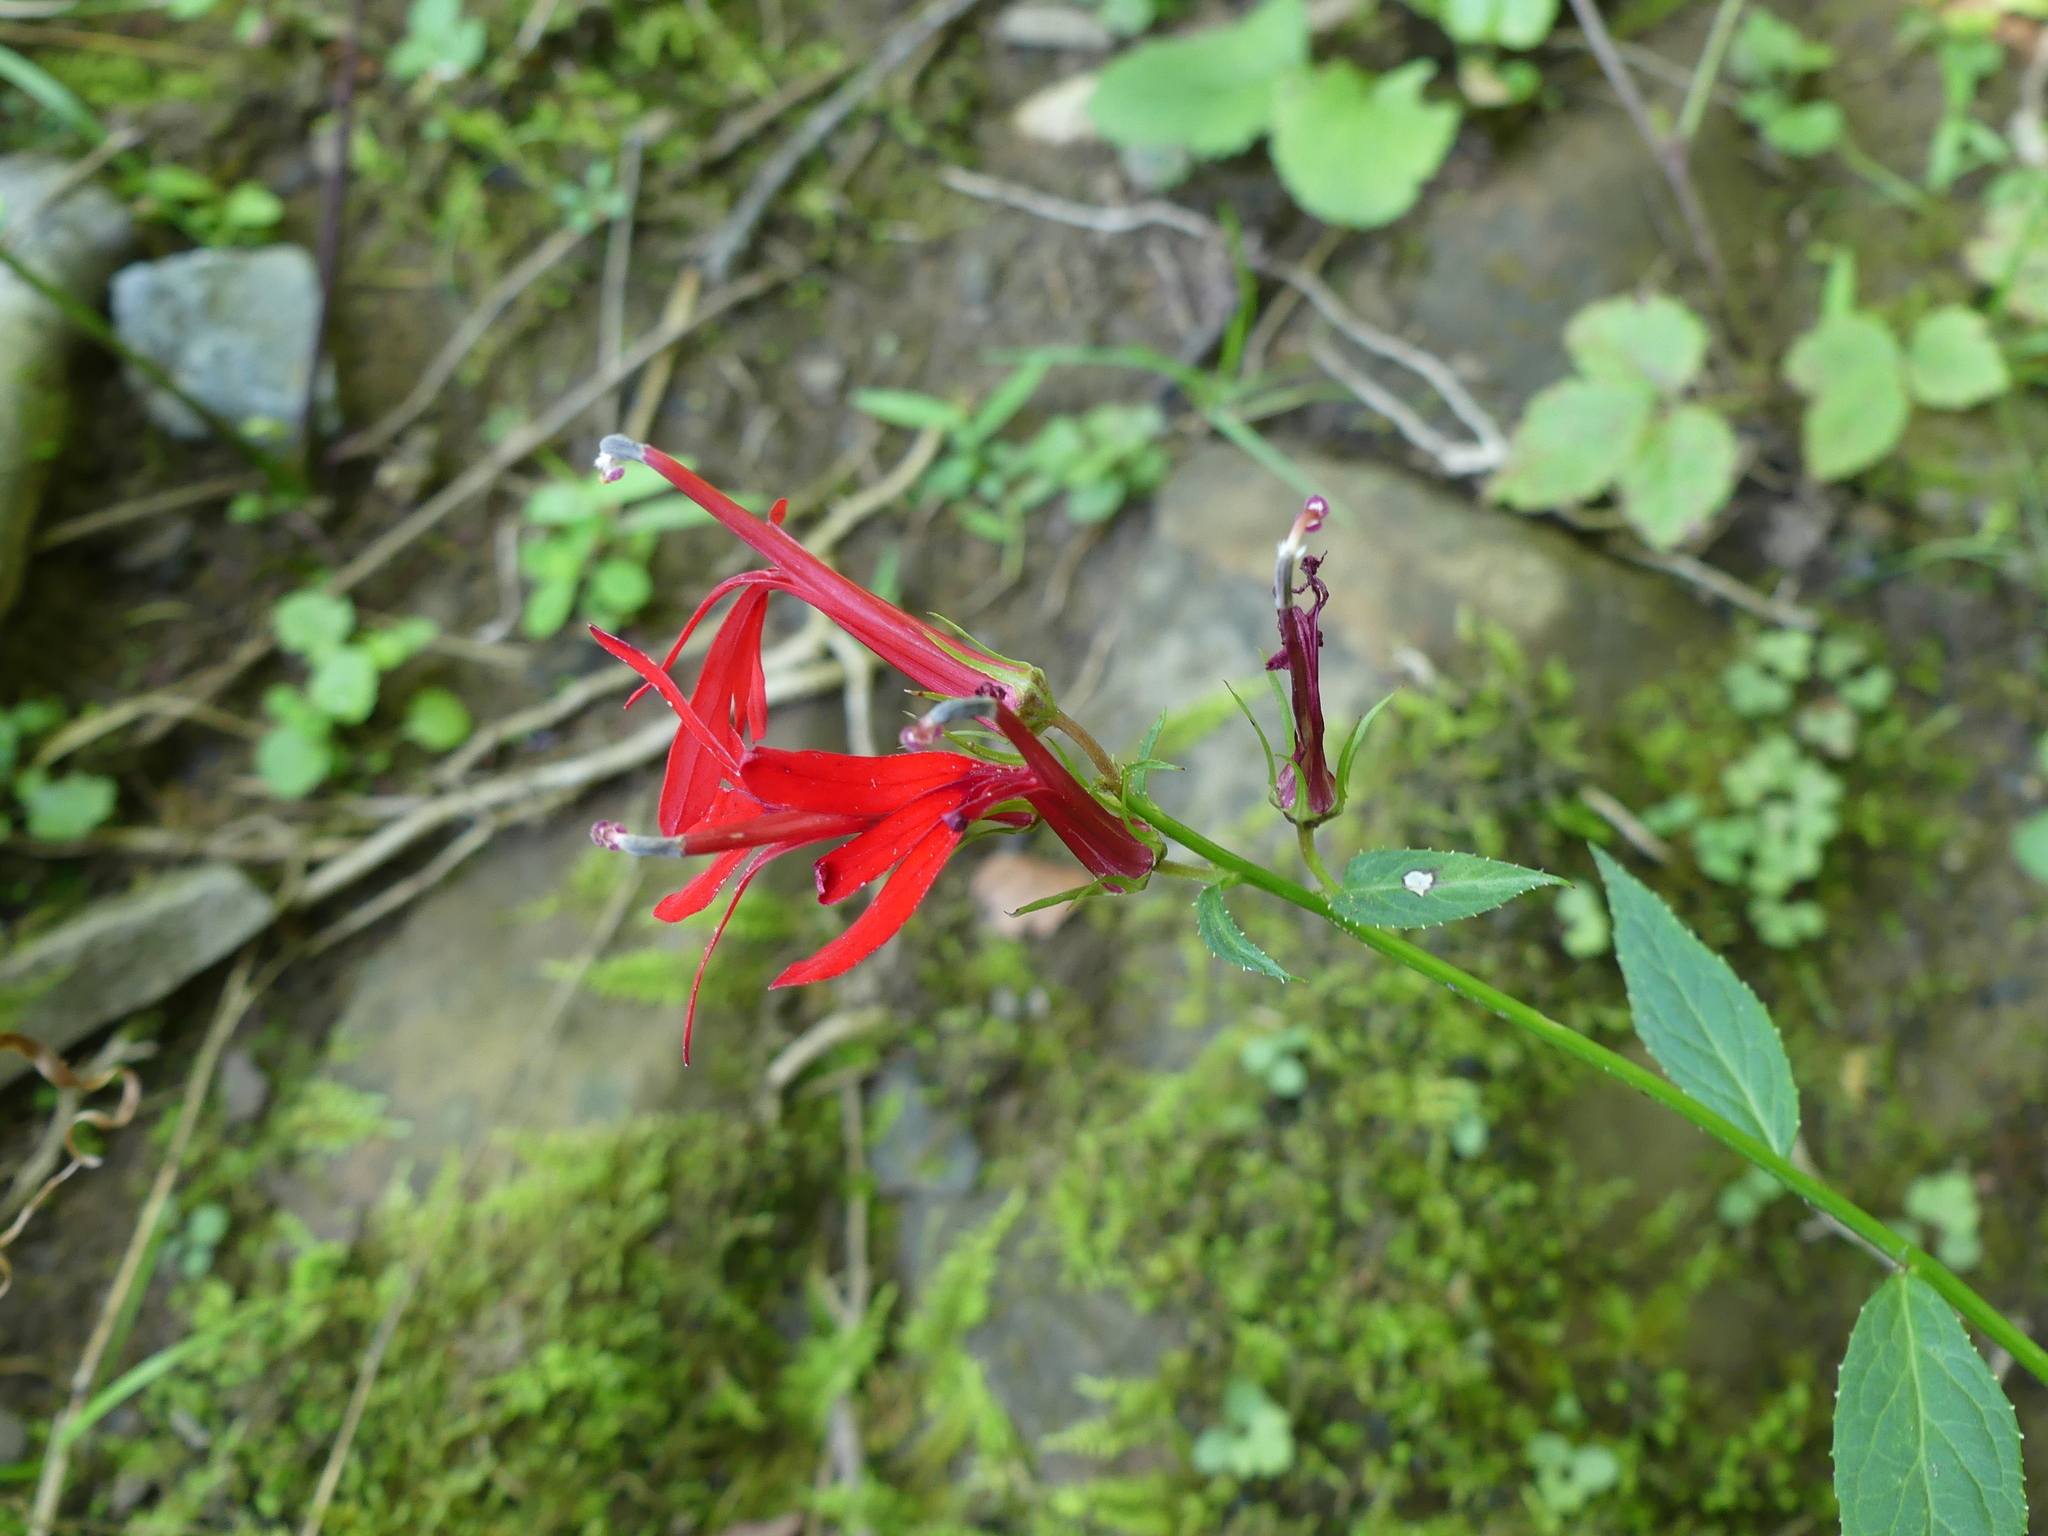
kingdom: Plantae
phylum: Tracheophyta
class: Magnoliopsida
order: Asterales
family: Campanulaceae
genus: Lobelia
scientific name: Lobelia cardinalis
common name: Cardinal flower
